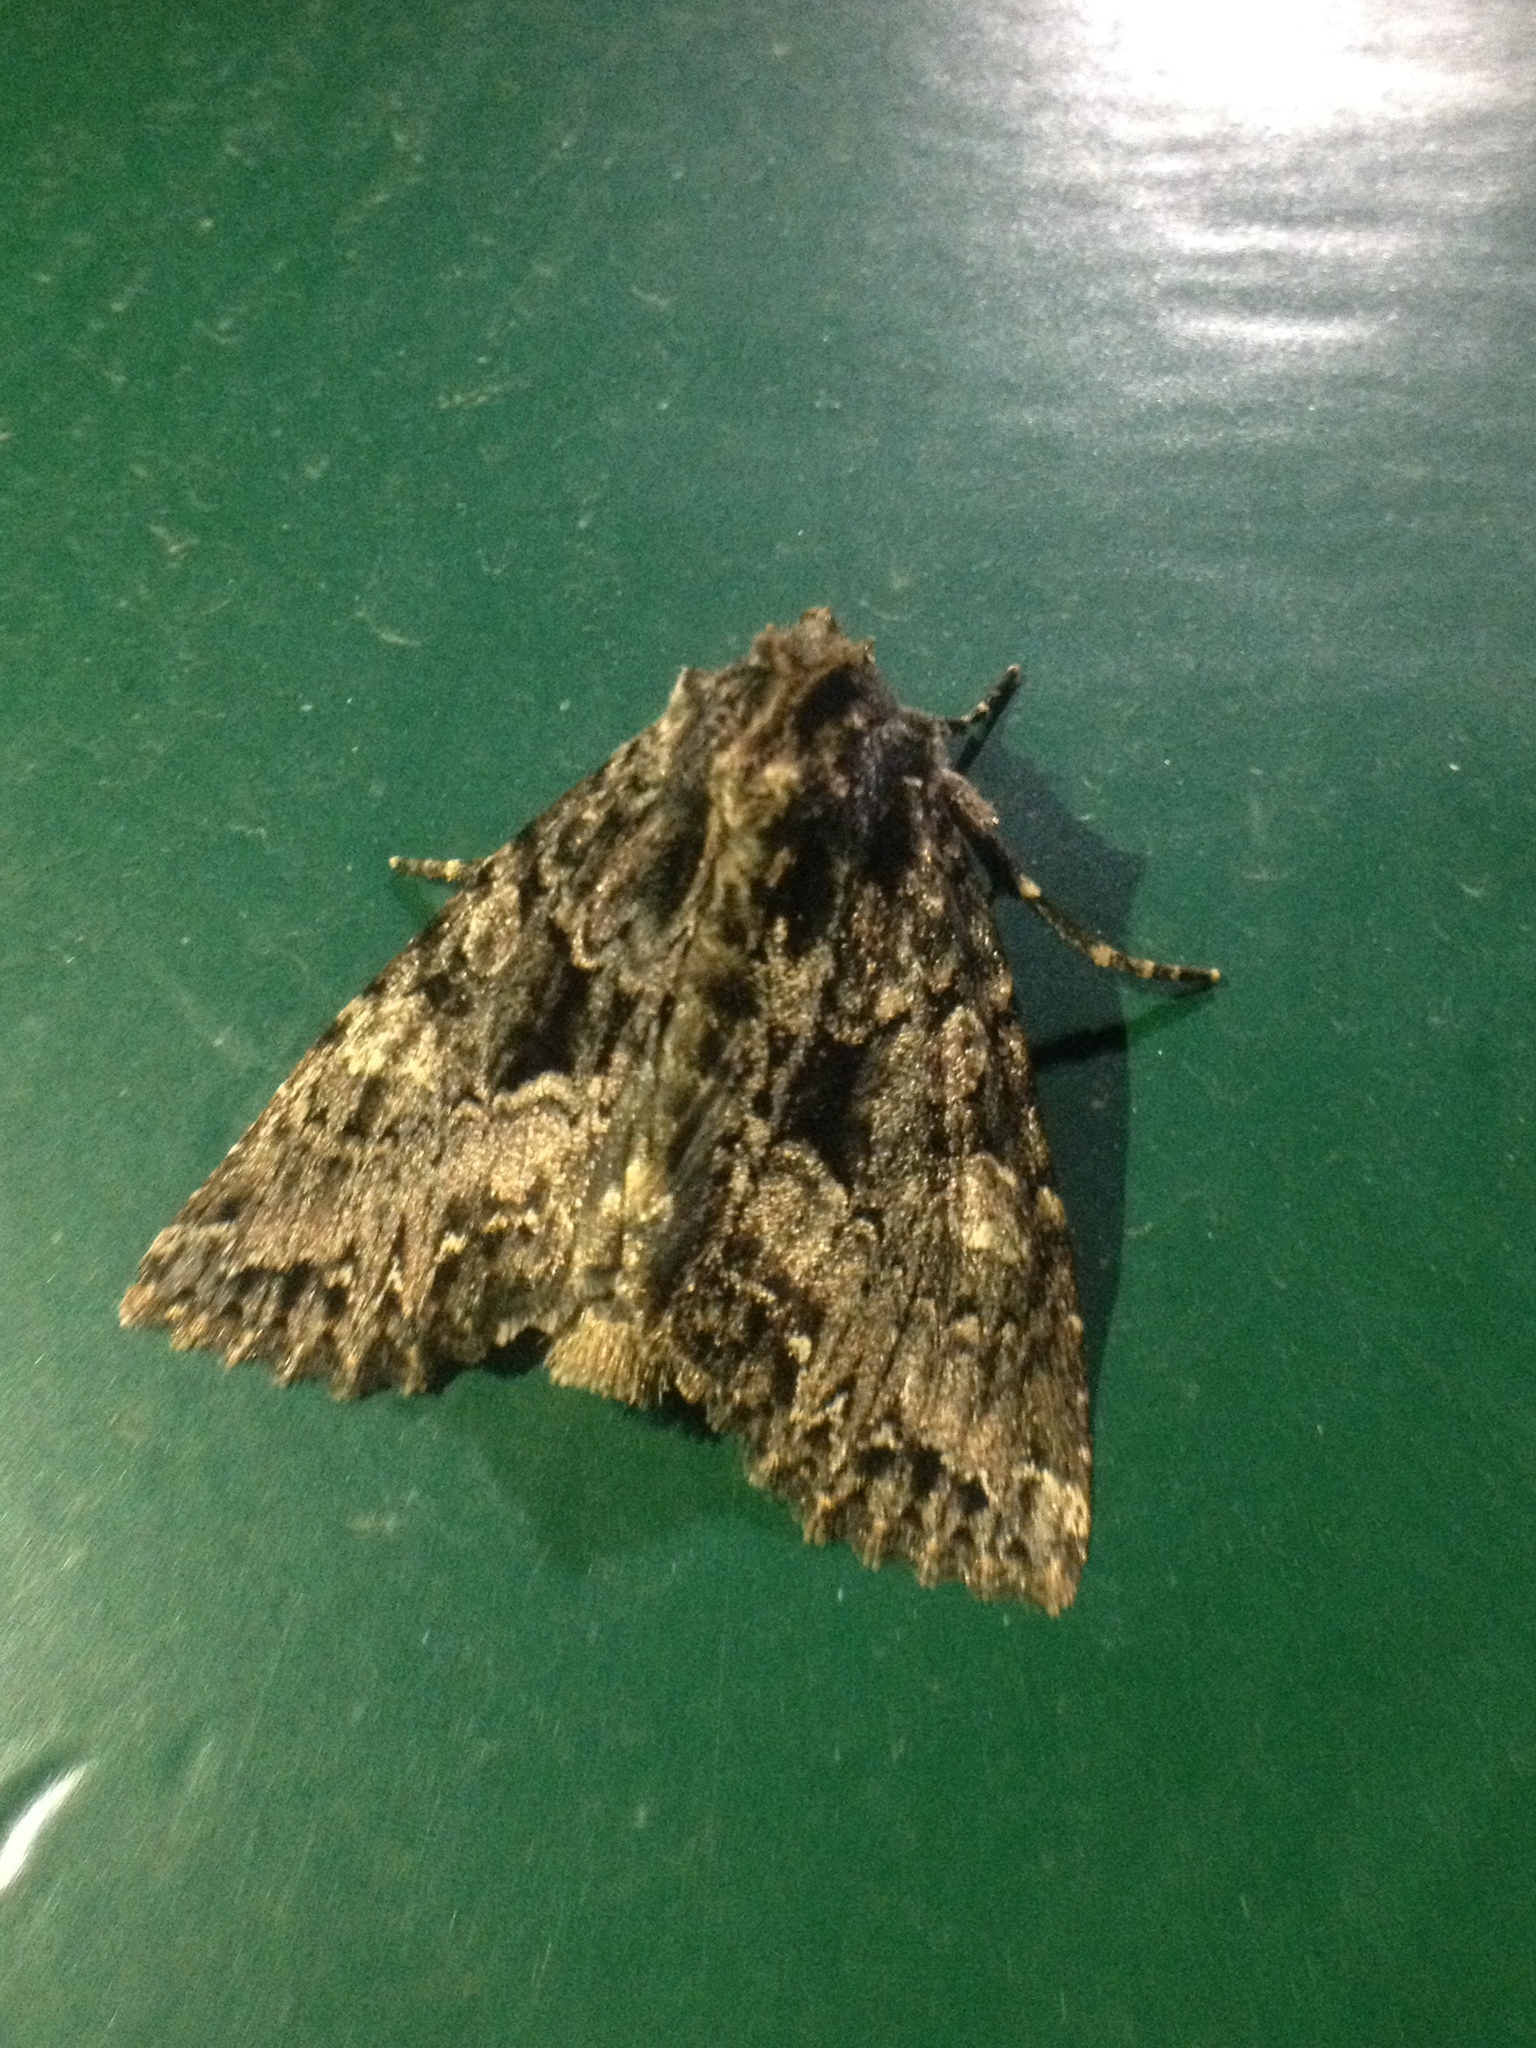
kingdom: Animalia
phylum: Arthropoda
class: Insecta
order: Lepidoptera
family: Noctuidae
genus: Mniotype
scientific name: Mniotype satura
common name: Beautiful arches
